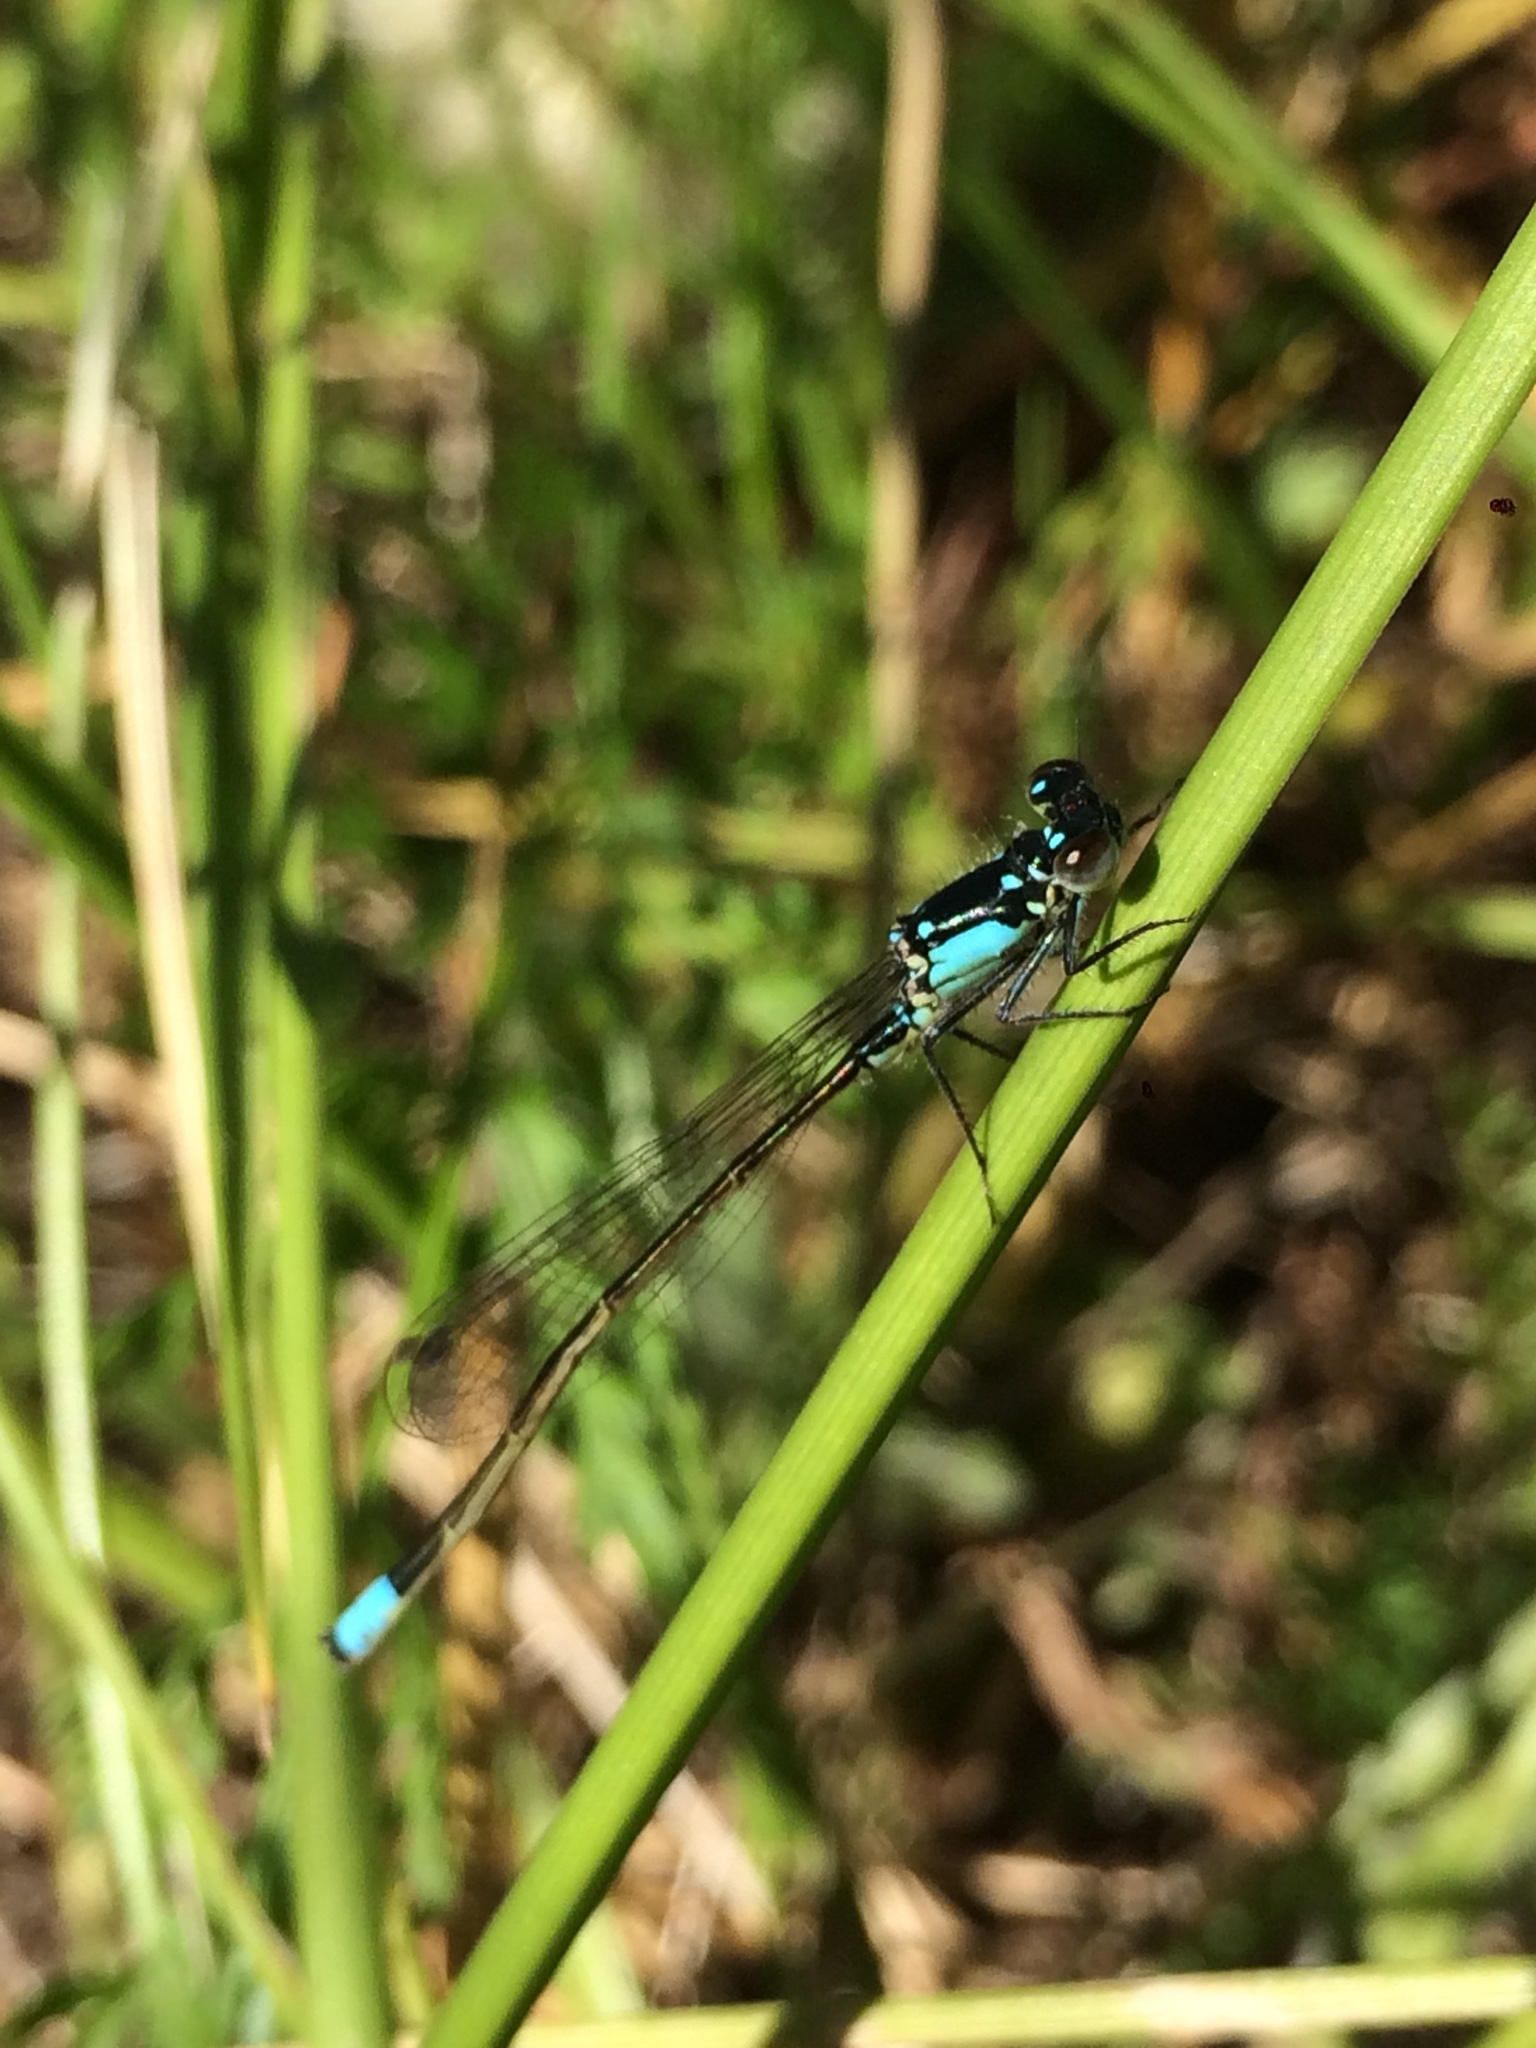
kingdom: Animalia
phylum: Arthropoda
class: Insecta
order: Odonata
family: Coenagrionidae
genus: Ischnura
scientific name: Ischnura cervula
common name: Pacific forktail
